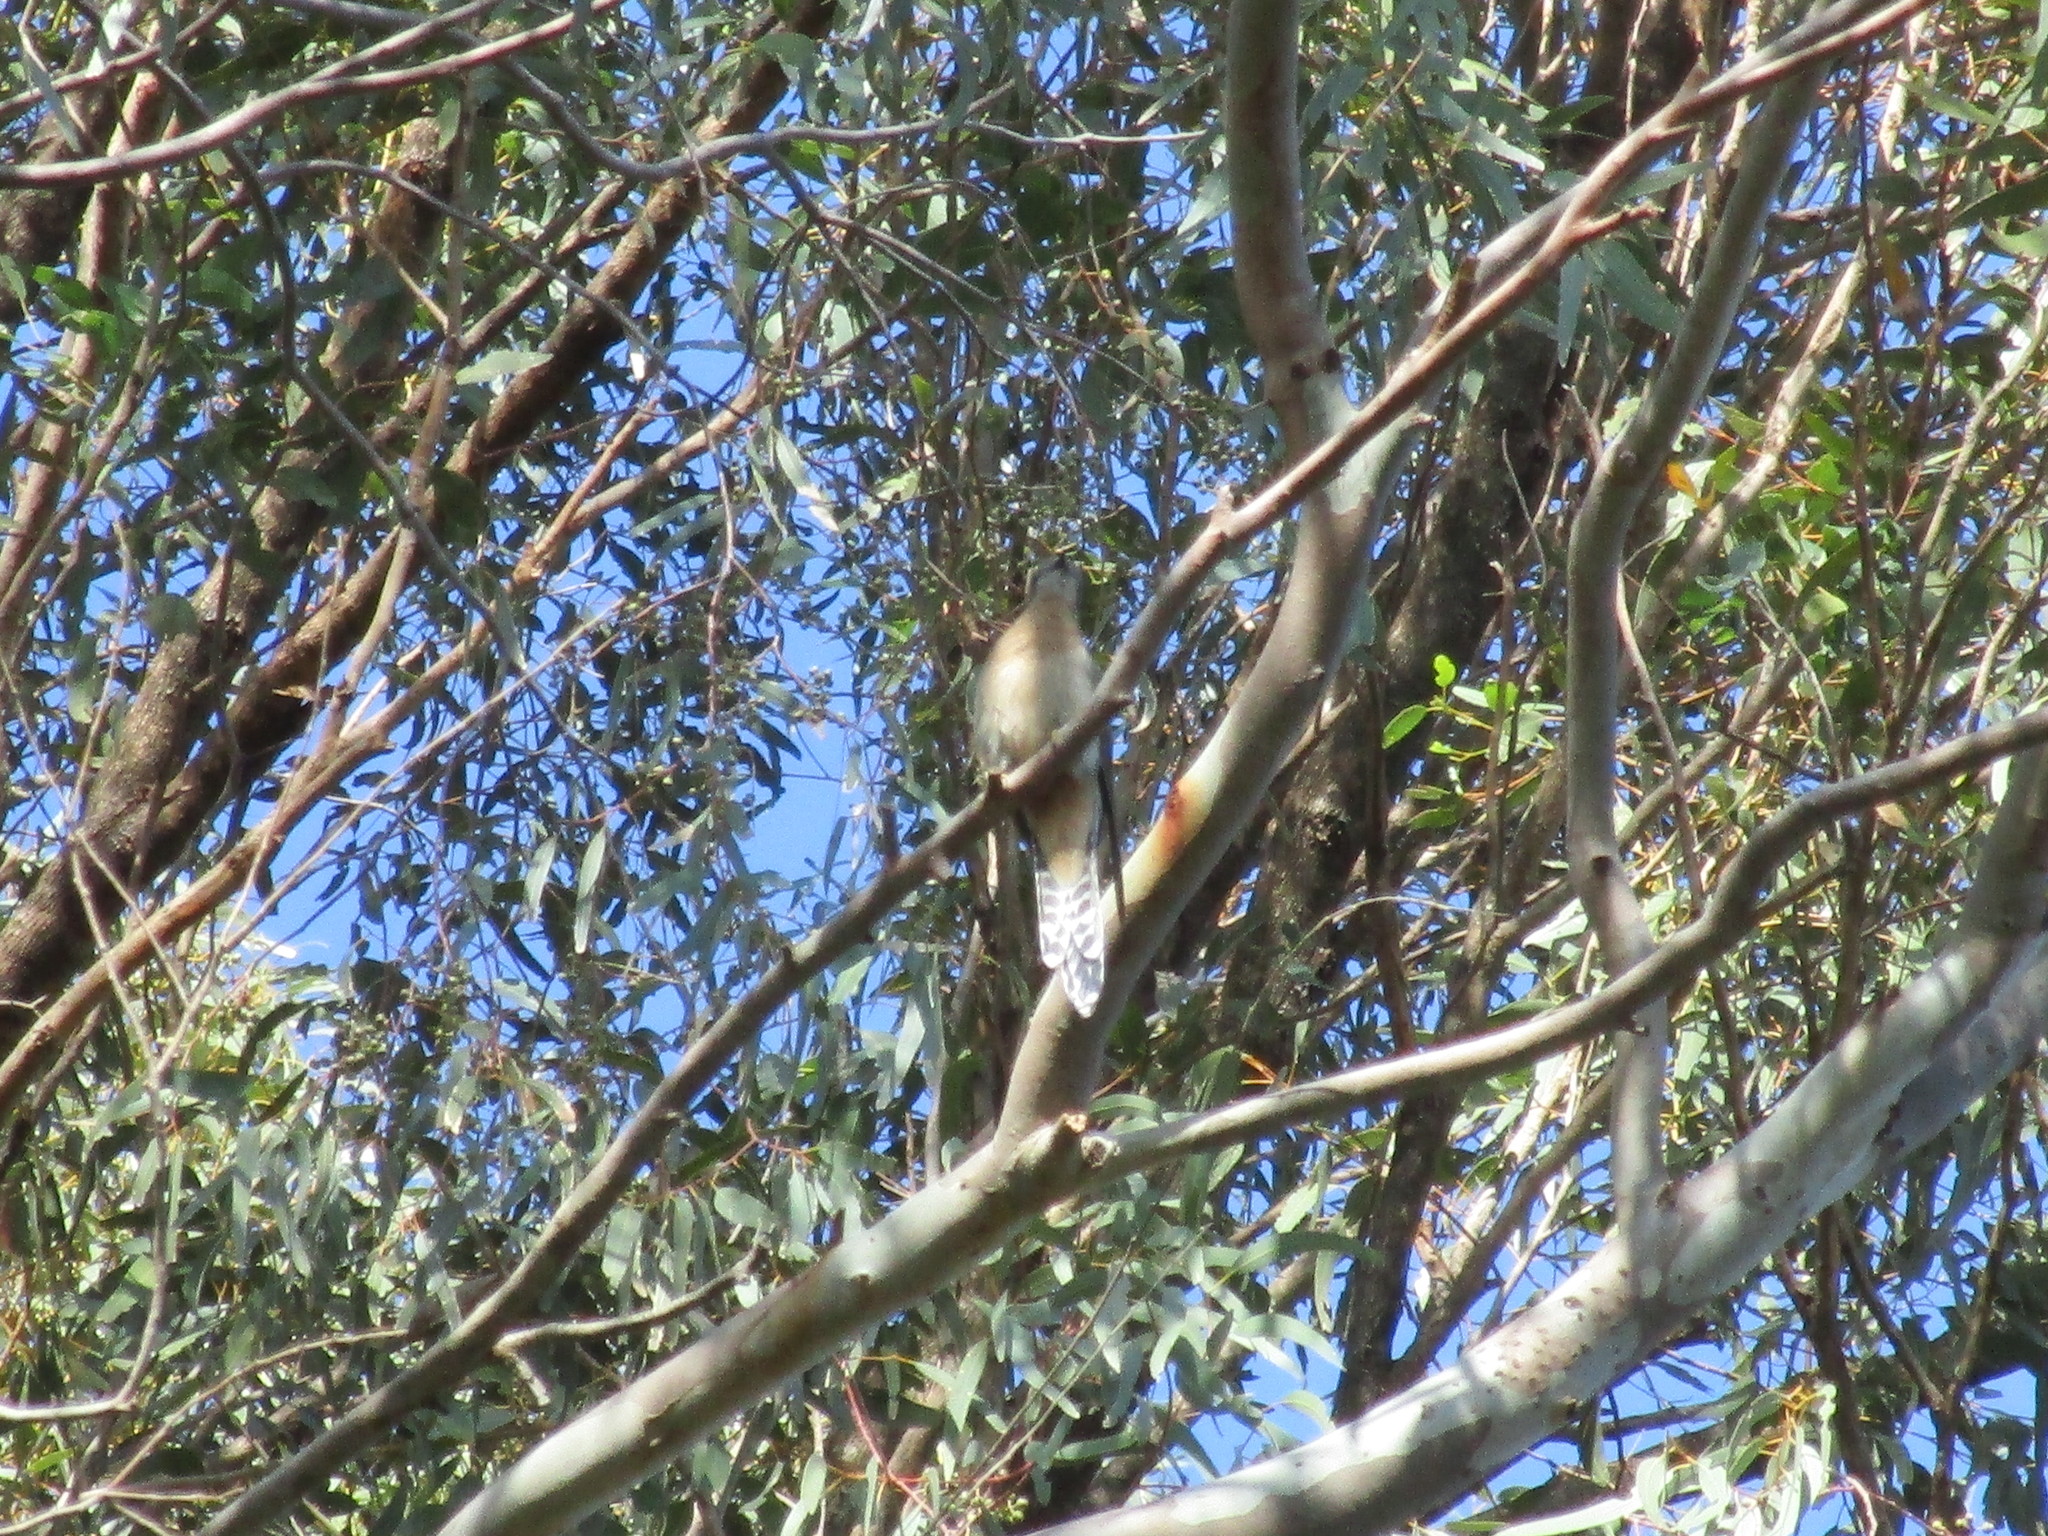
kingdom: Animalia
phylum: Chordata
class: Aves
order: Cuculiformes
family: Cuculidae
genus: Cacomantis
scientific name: Cacomantis flabelliformis
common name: Fan-tailed cuckoo
